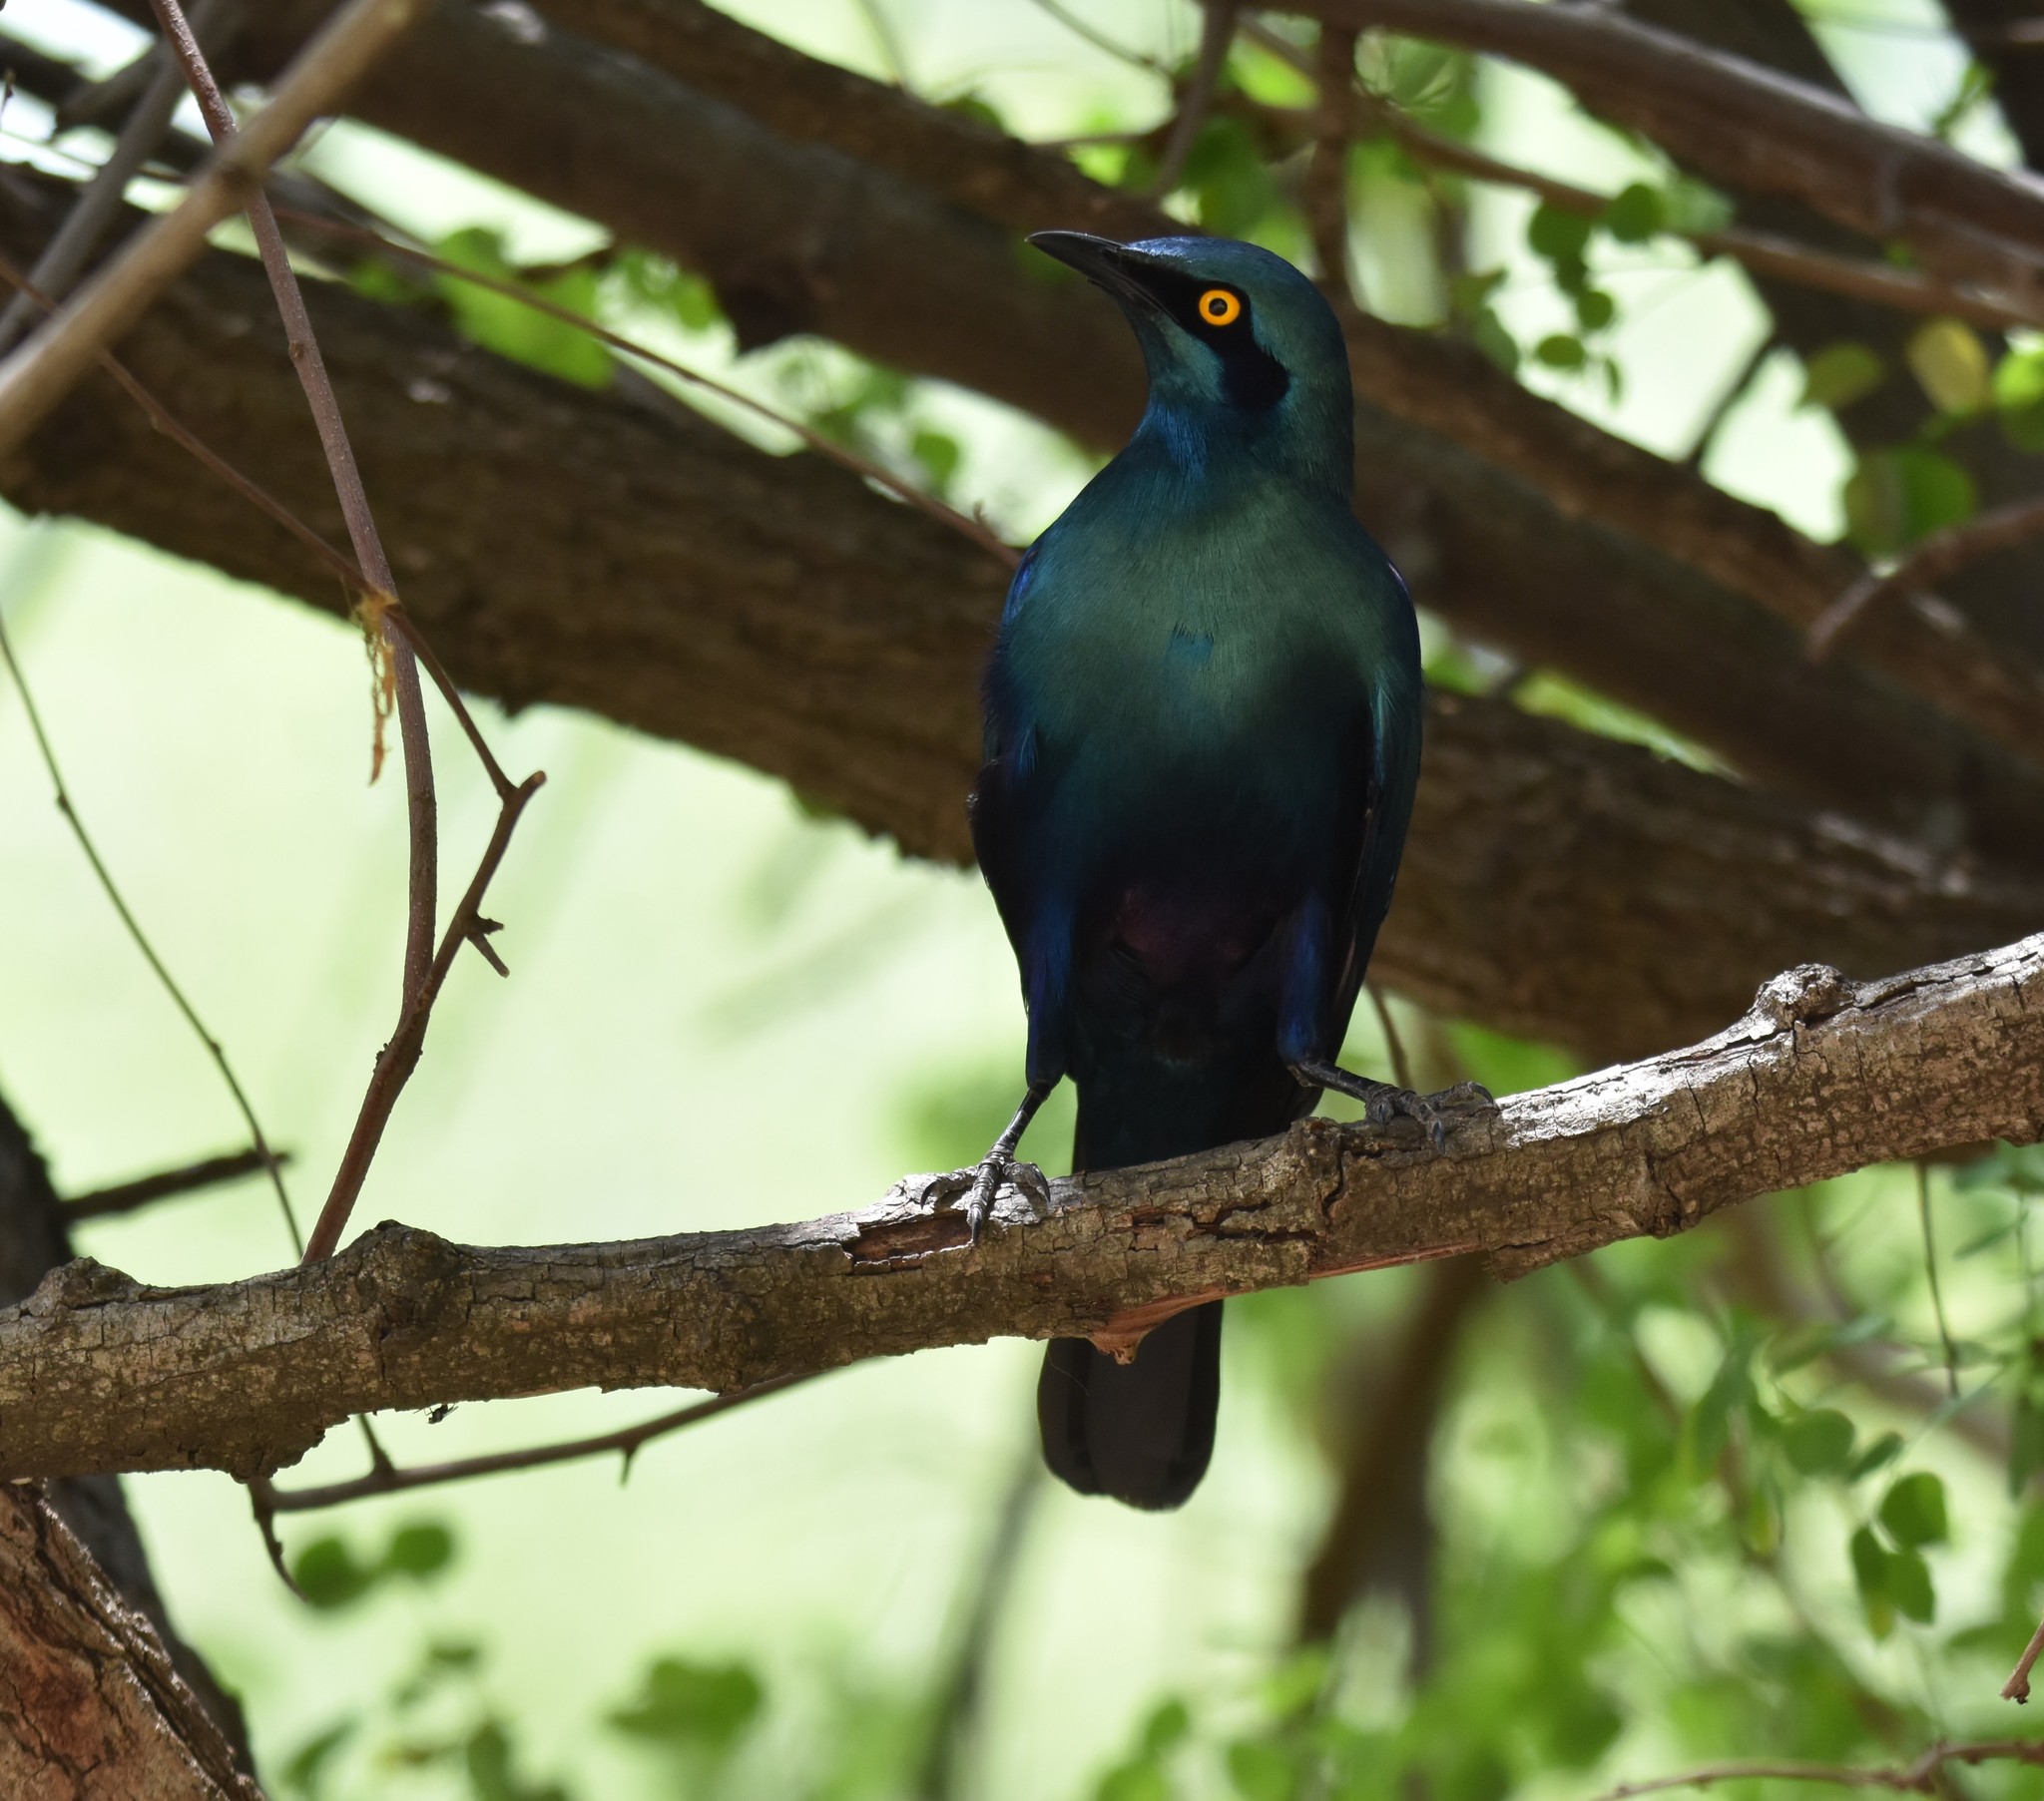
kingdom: Animalia
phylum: Chordata
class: Aves
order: Passeriformes
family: Sturnidae
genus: Lamprotornis
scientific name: Lamprotornis chalybaeus
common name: Greater blue-eared starling
